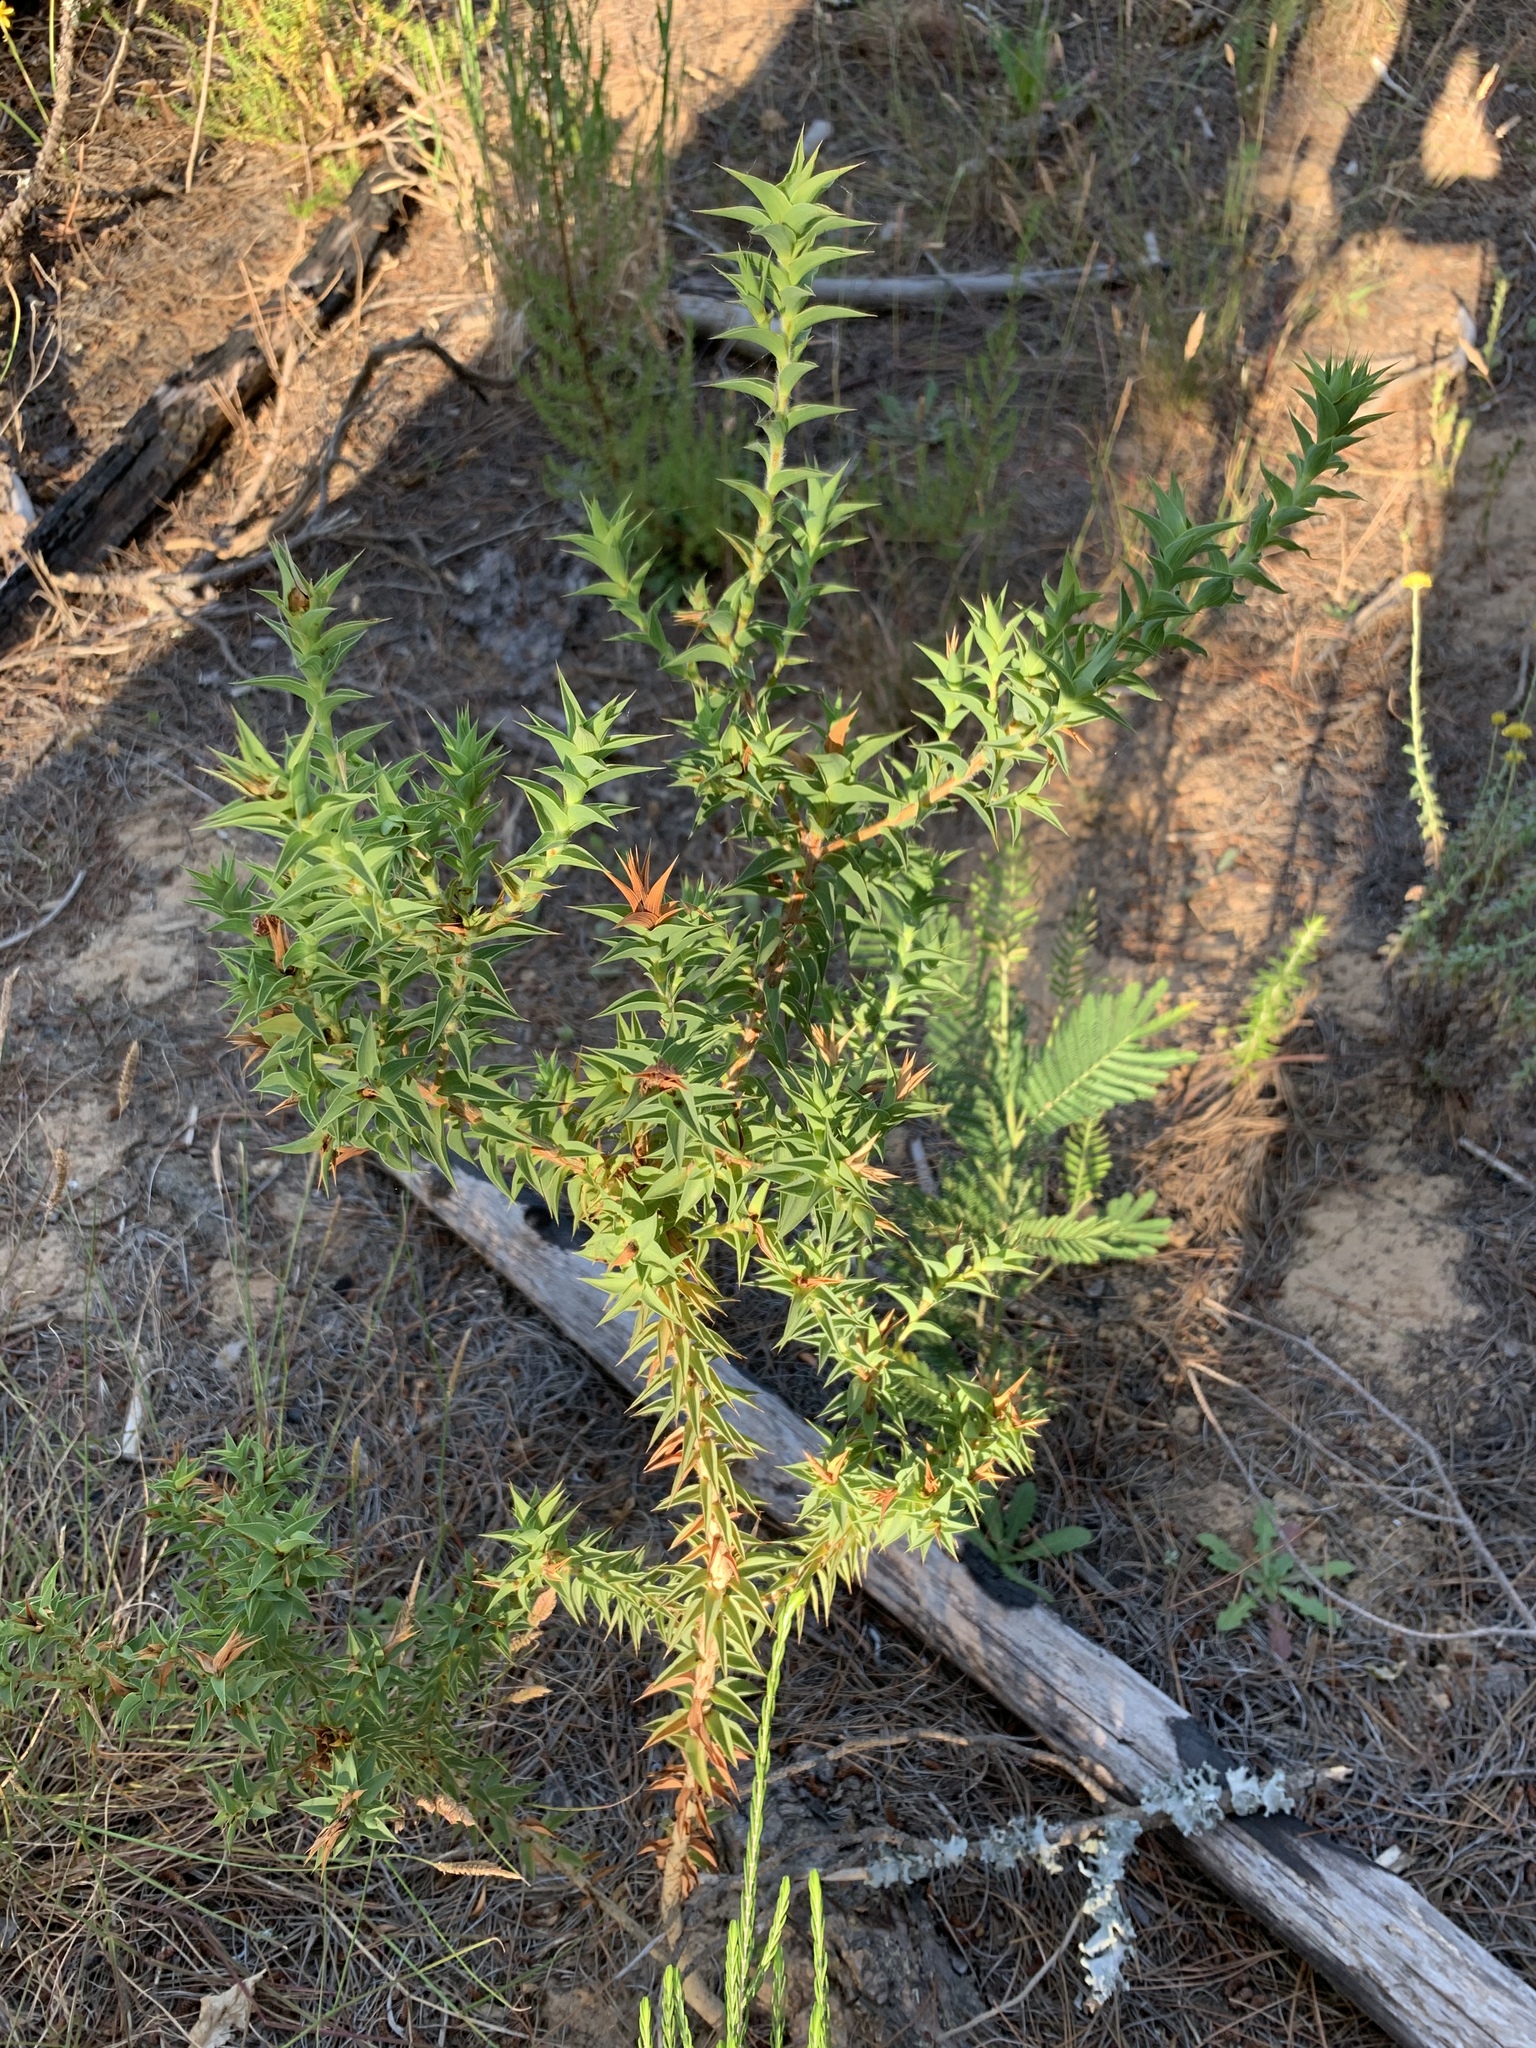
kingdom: Plantae
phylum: Tracheophyta
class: Magnoliopsida
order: Fabales
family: Fabaceae
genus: Aspalathus
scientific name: Aspalathus cordata
